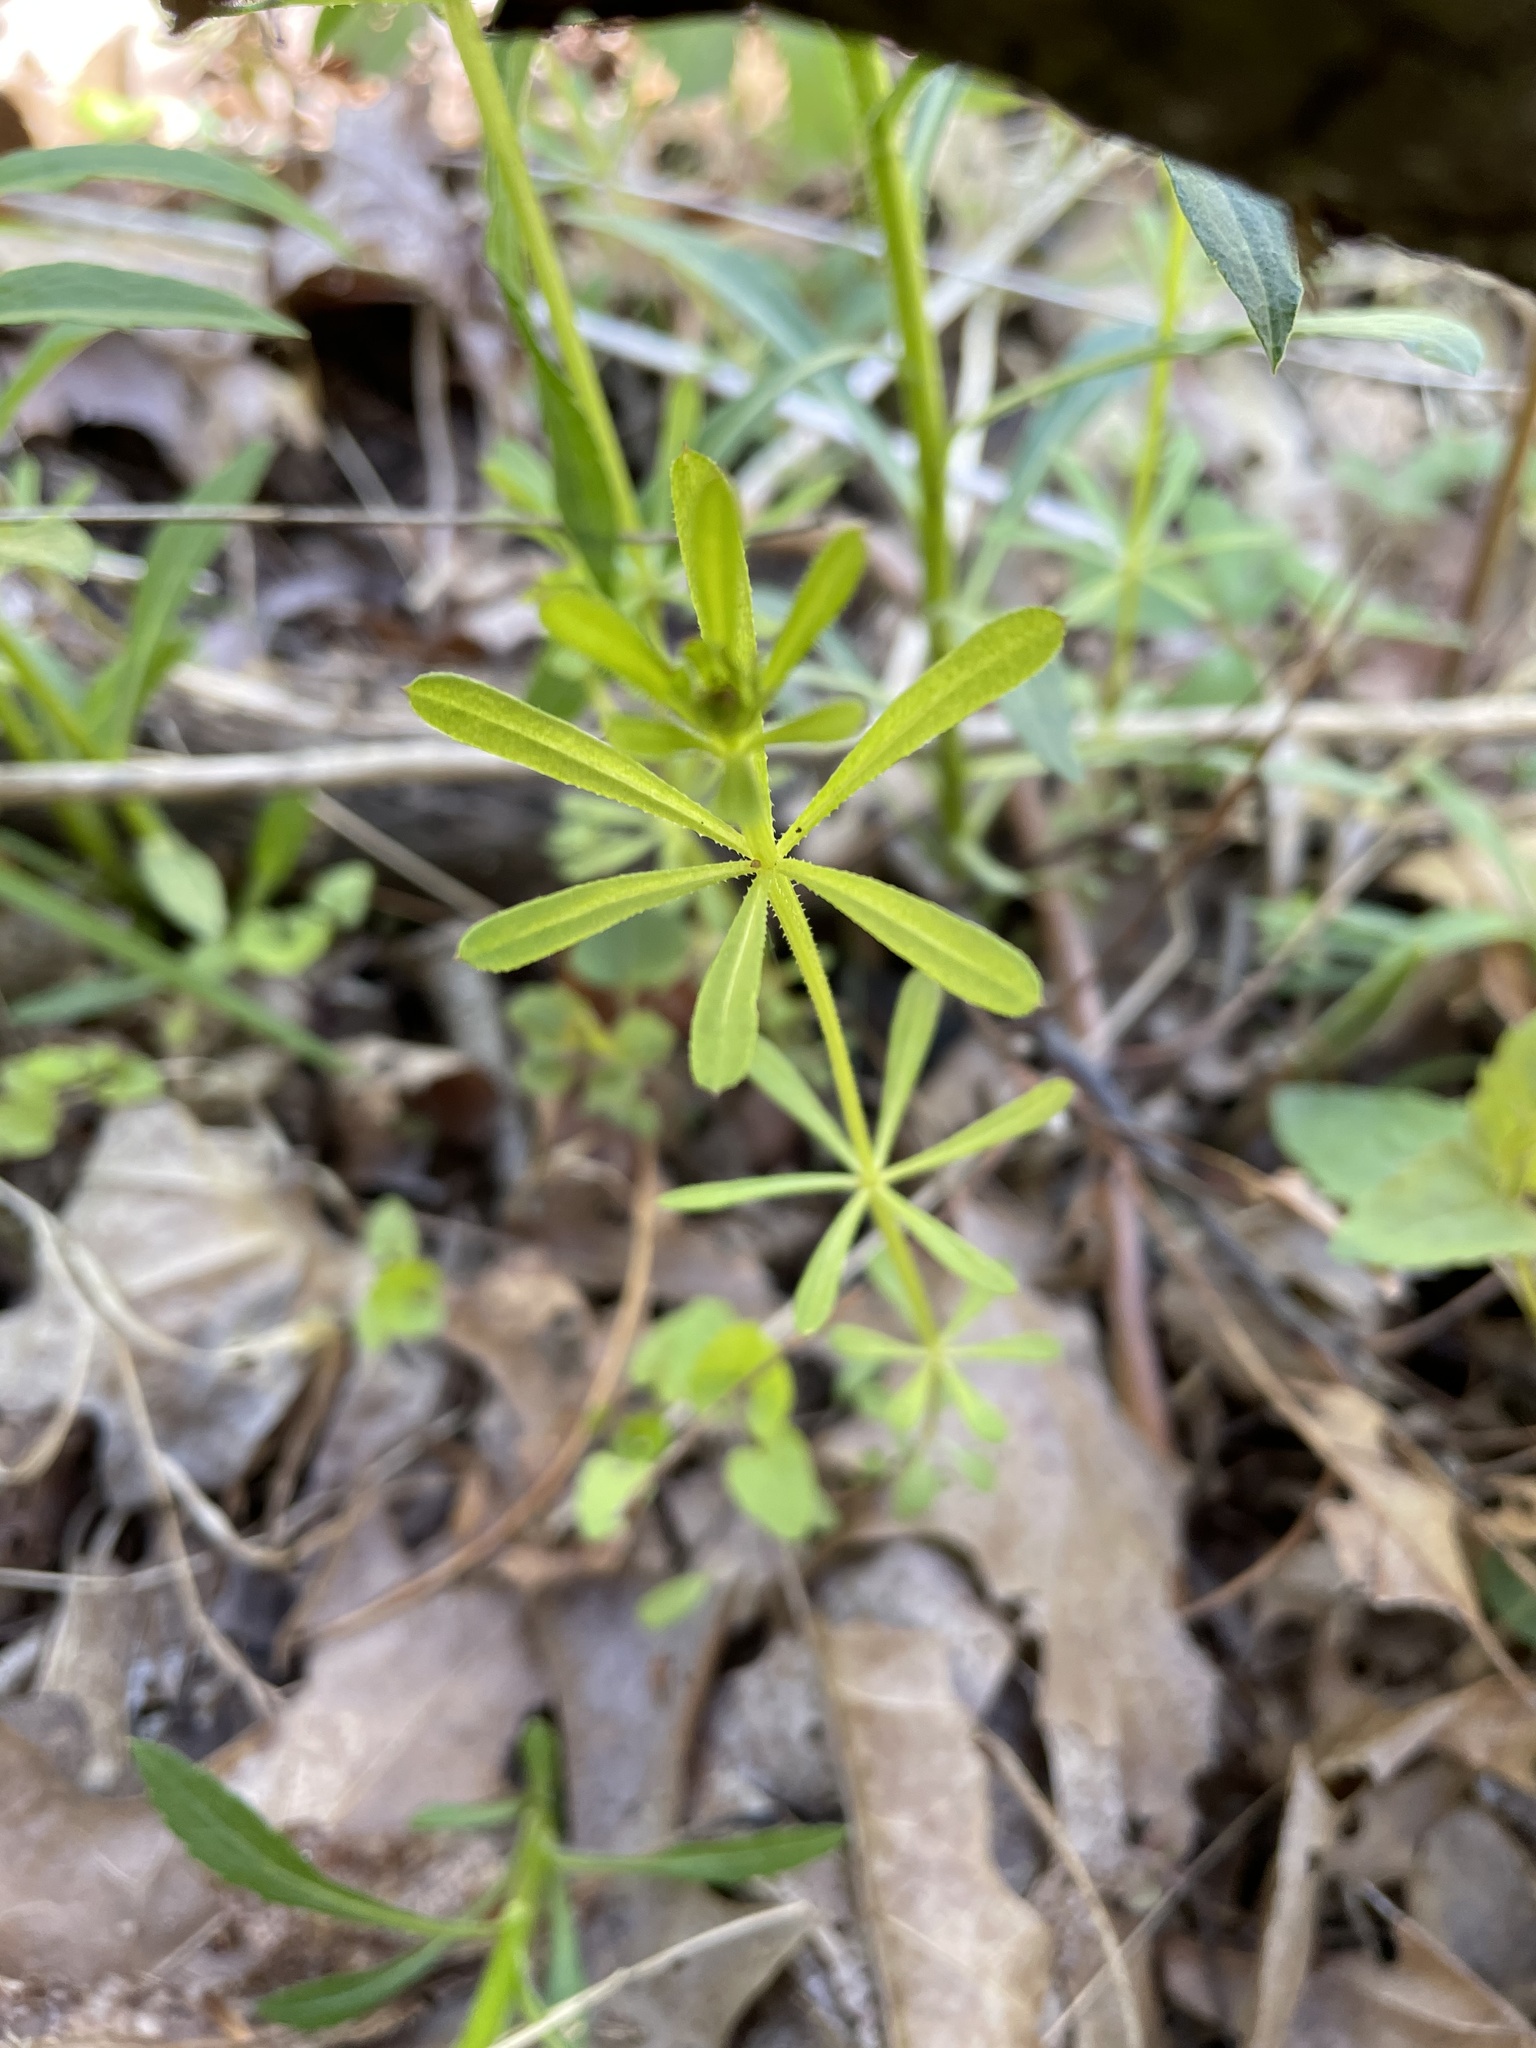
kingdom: Plantae
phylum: Tracheophyta
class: Magnoliopsida
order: Gentianales
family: Rubiaceae
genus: Galium
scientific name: Galium aparine
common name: Cleavers
